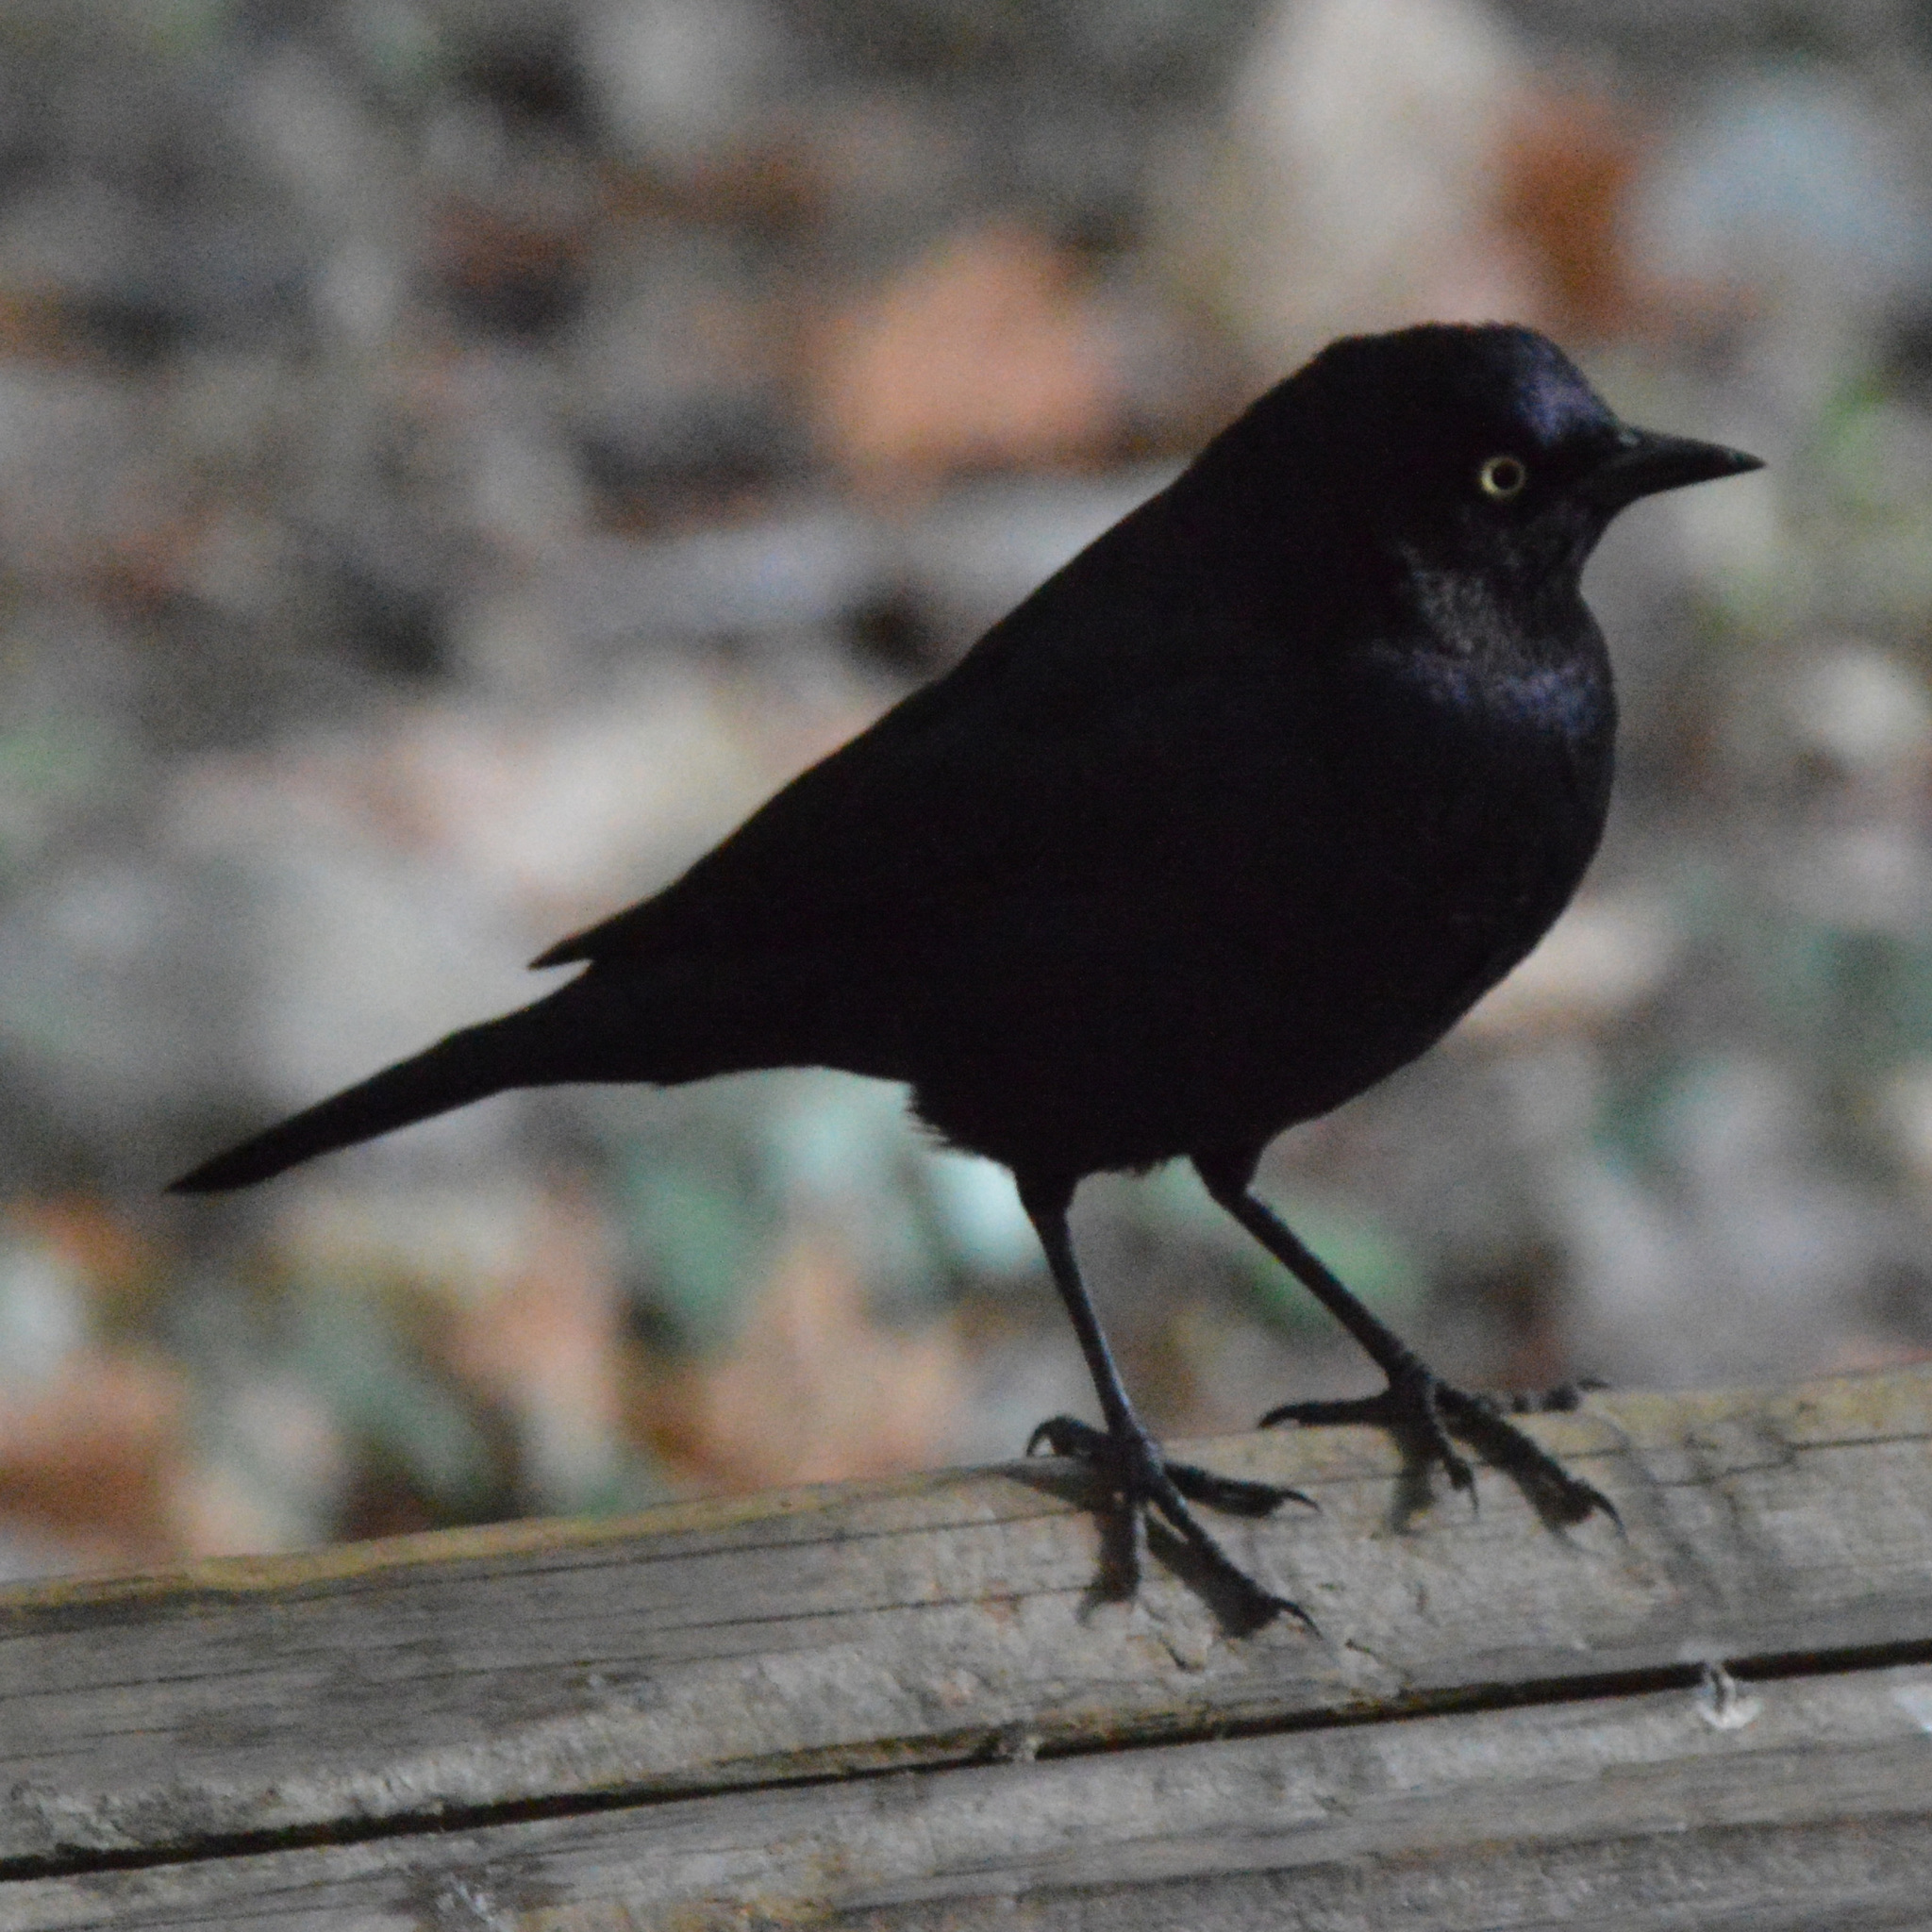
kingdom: Animalia
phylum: Chordata
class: Aves
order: Passeriformes
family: Icteridae
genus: Euphagus
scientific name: Euphagus cyanocephalus
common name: Brewer's blackbird
